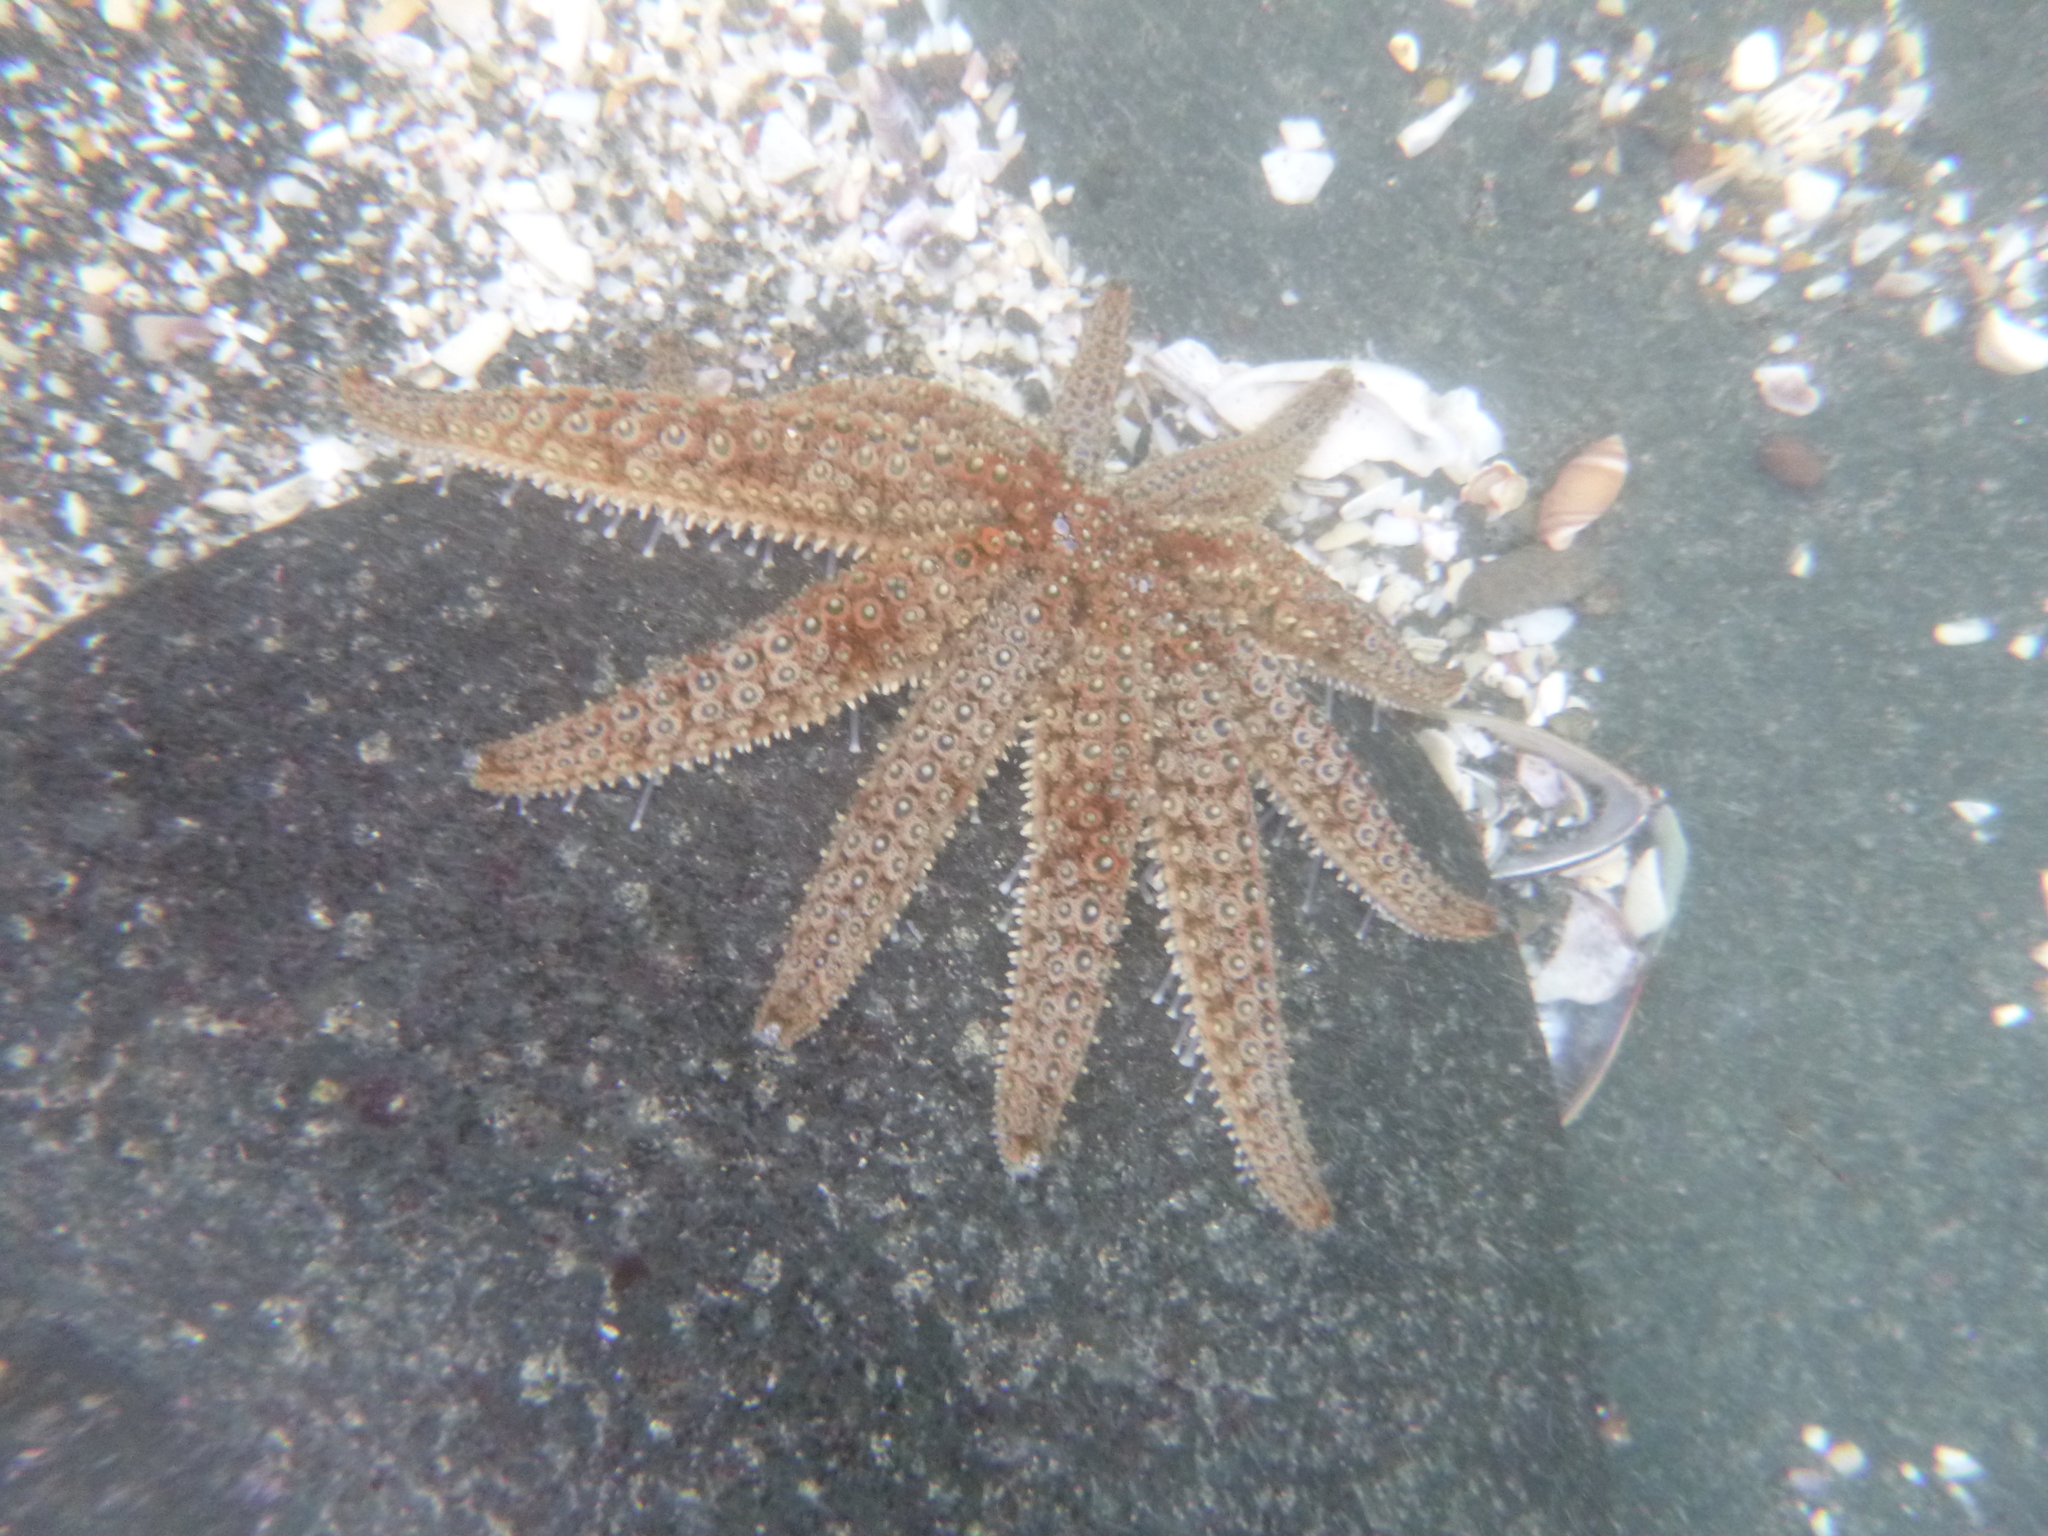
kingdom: Animalia
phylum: Echinodermata
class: Asteroidea
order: Forcipulatida
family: Asteriidae
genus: Coscinasterias
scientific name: Coscinasterias muricata
